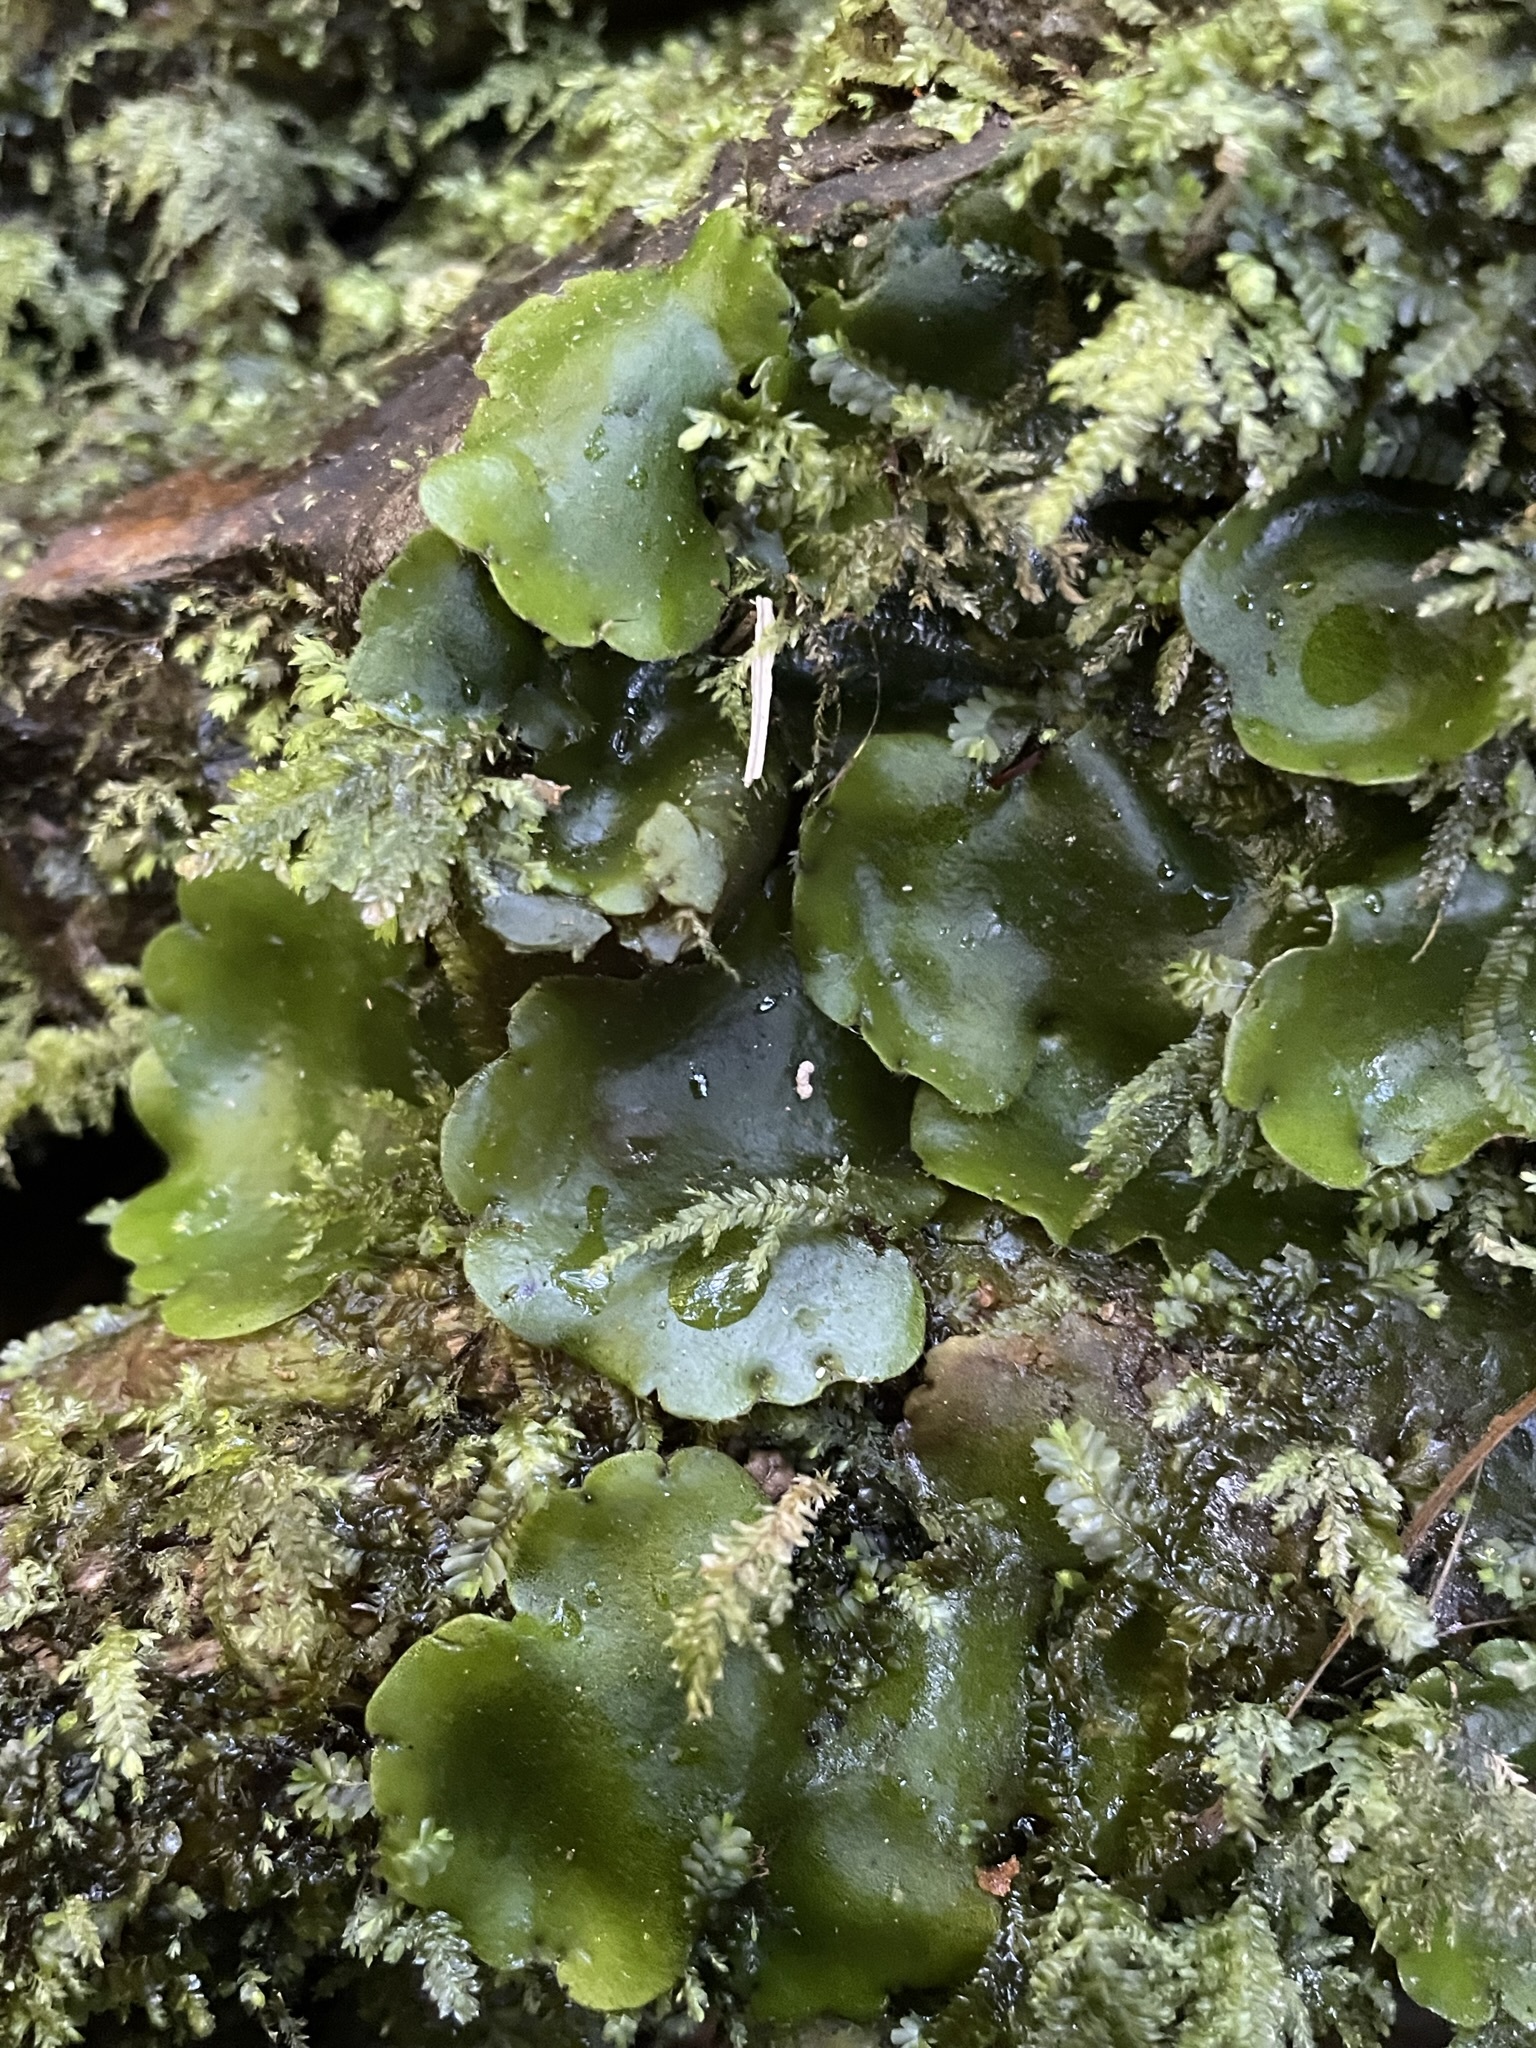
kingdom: Plantae
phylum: Marchantiophyta
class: Marchantiopsida
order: Marchantiales
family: Monocleaceae
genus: Monoclea
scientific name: Monoclea forsteri
